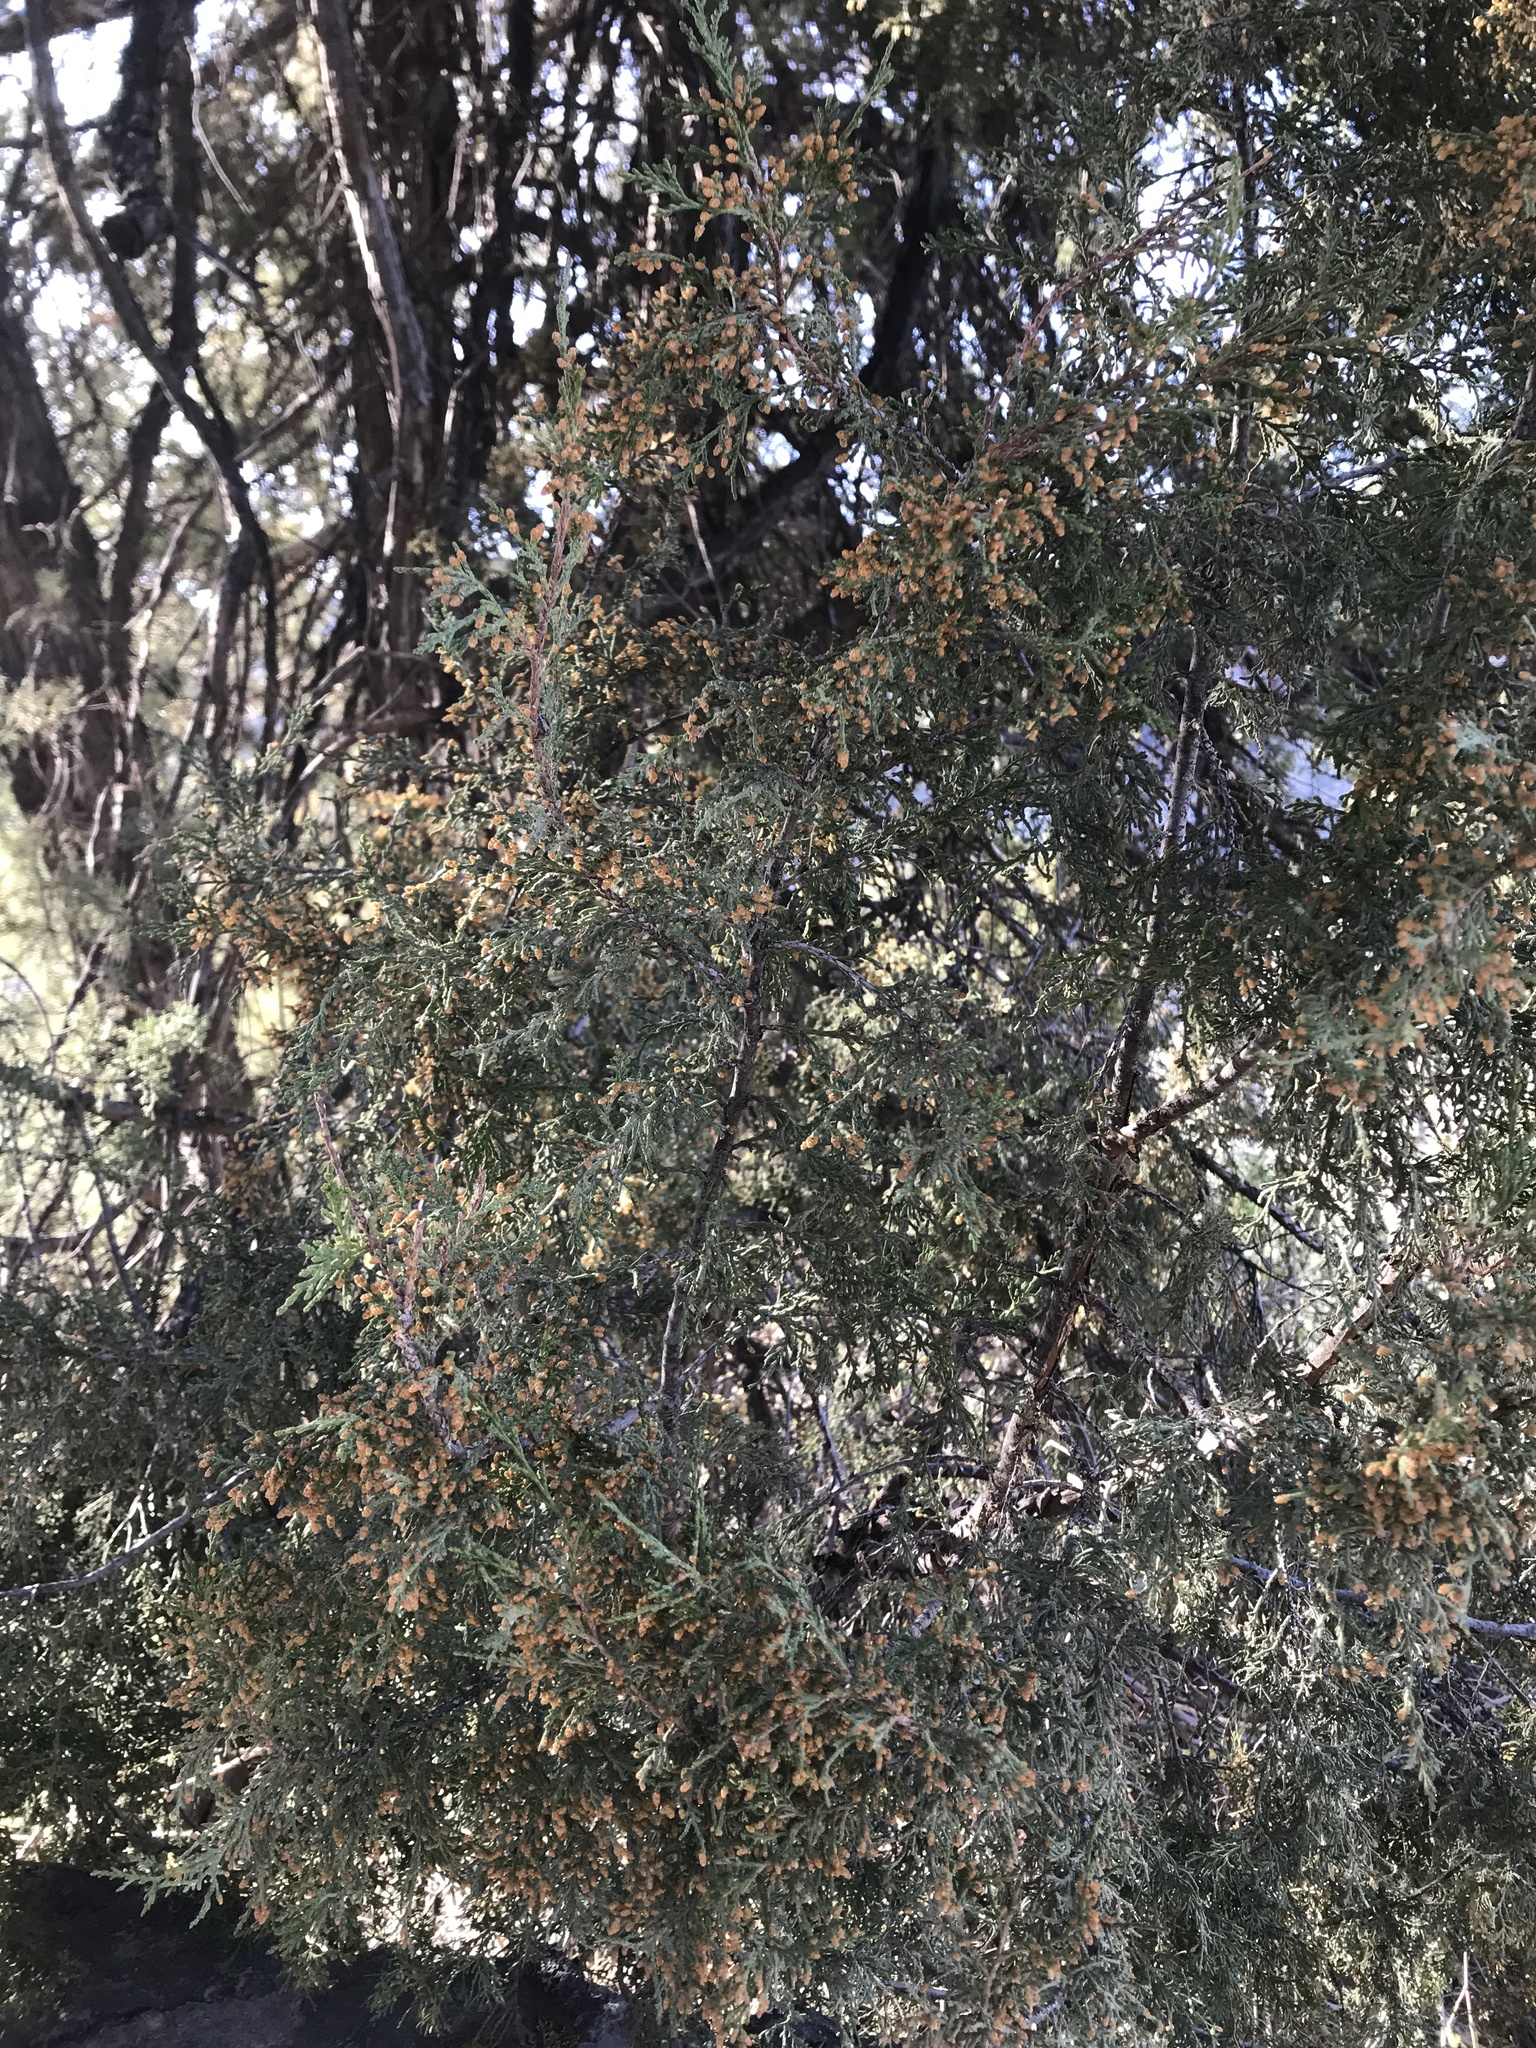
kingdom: Plantae
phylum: Tracheophyta
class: Pinopsida
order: Pinales
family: Cupressaceae
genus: Juniperus
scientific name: Juniperus scopulorum
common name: Rocky mountain juniper
